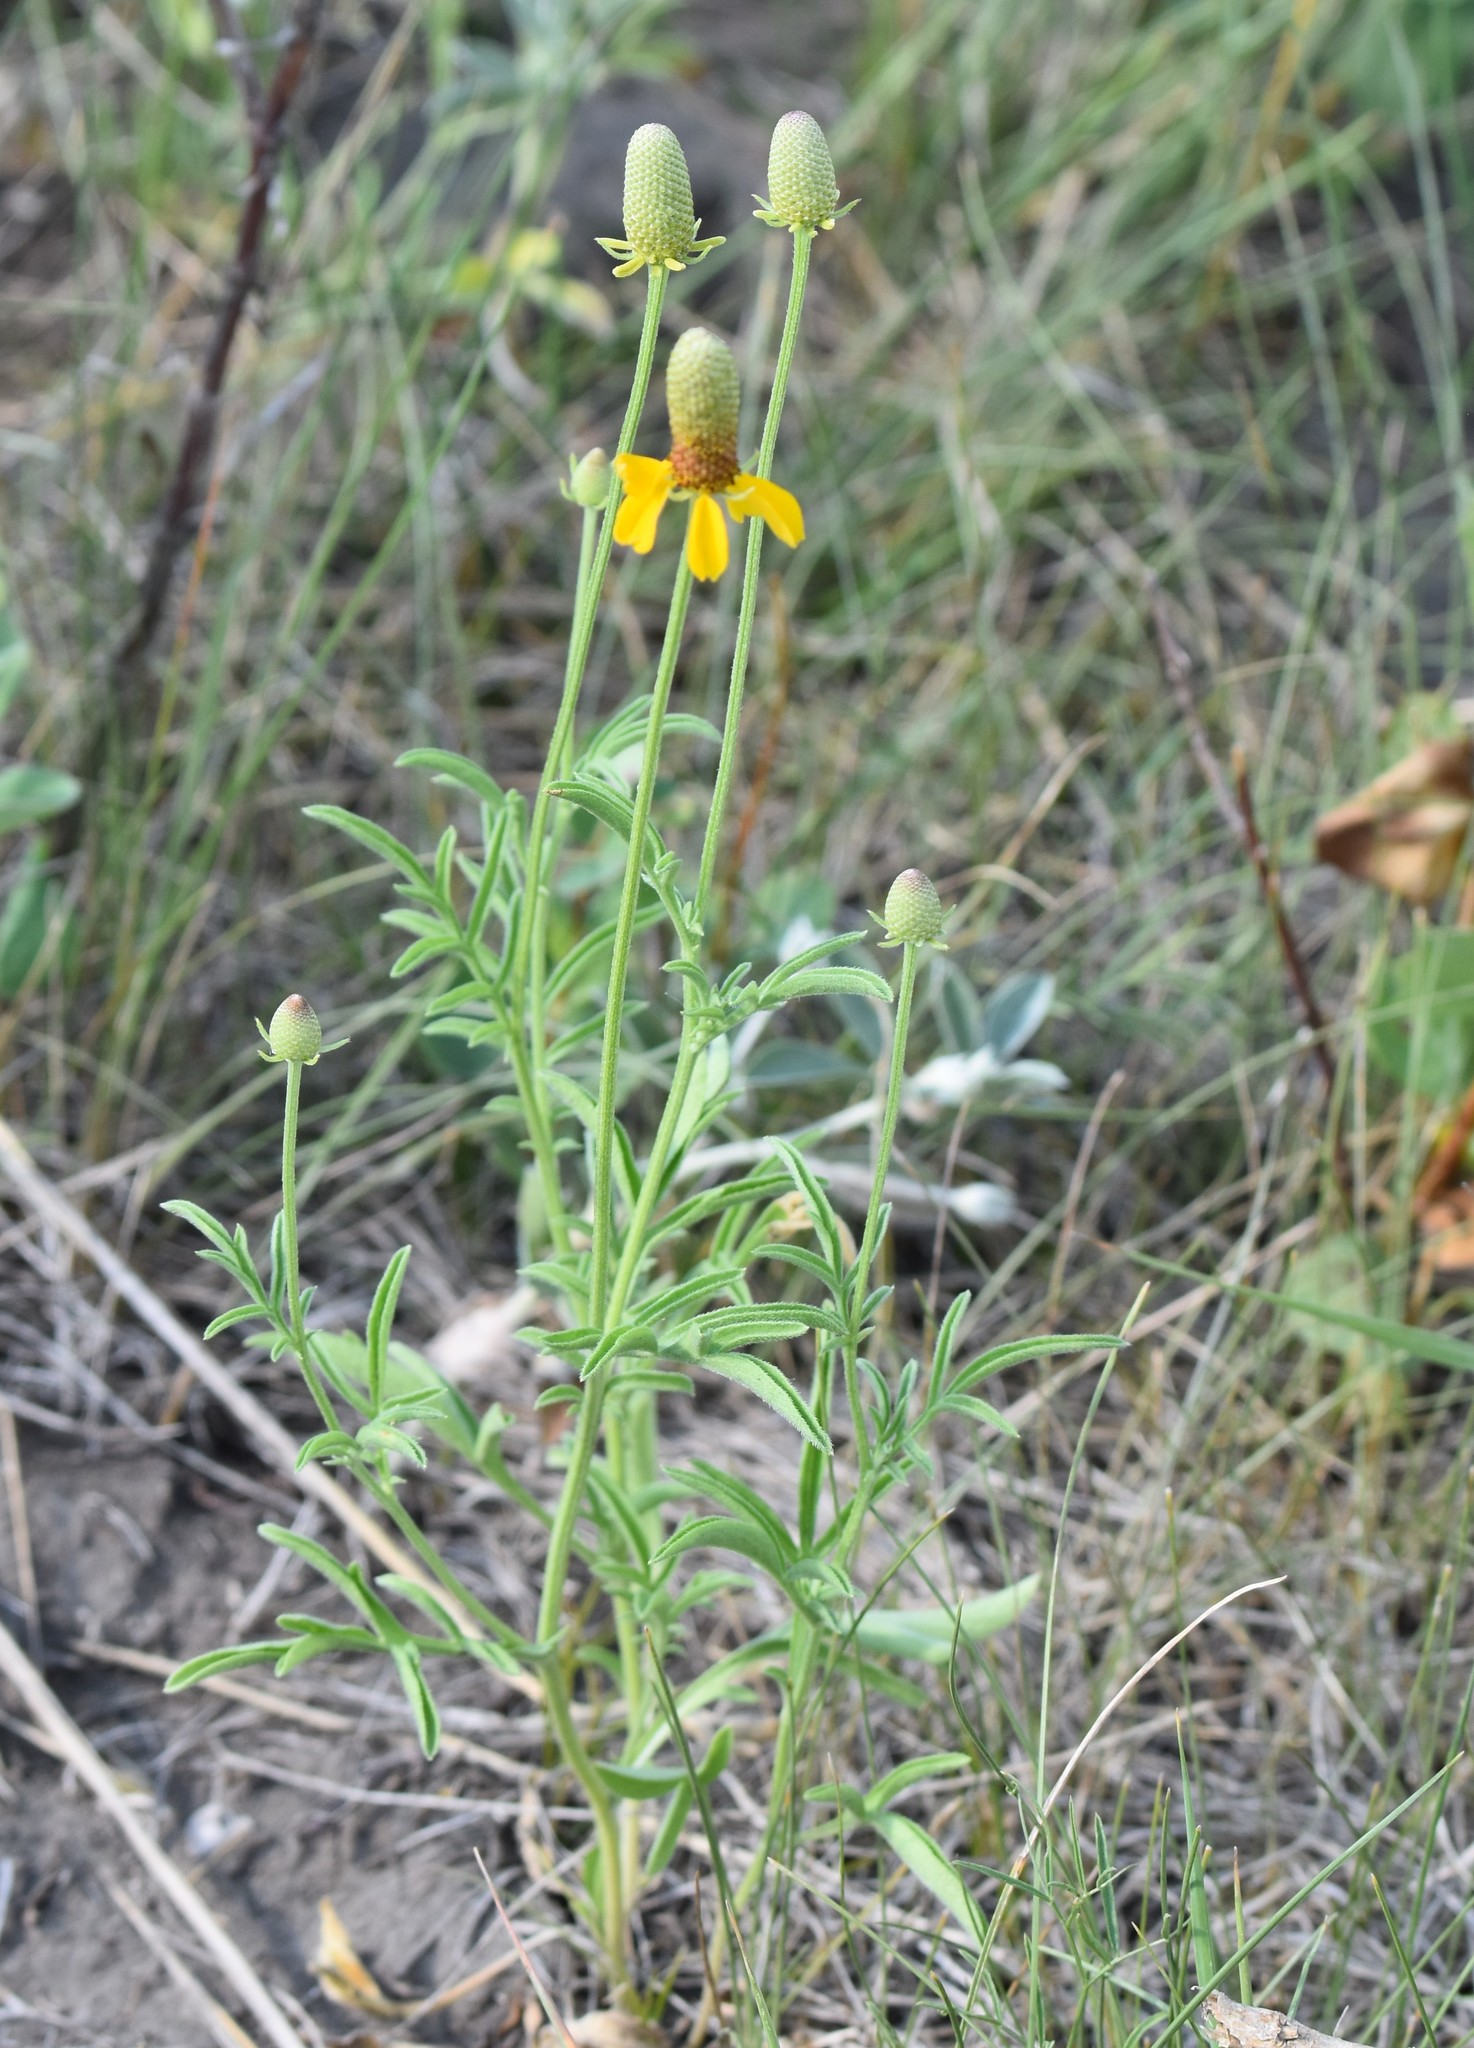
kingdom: Plantae
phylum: Tracheophyta
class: Magnoliopsida
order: Asterales
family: Asteraceae
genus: Ratibida
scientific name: Ratibida columnifera
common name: Prairie coneflower
